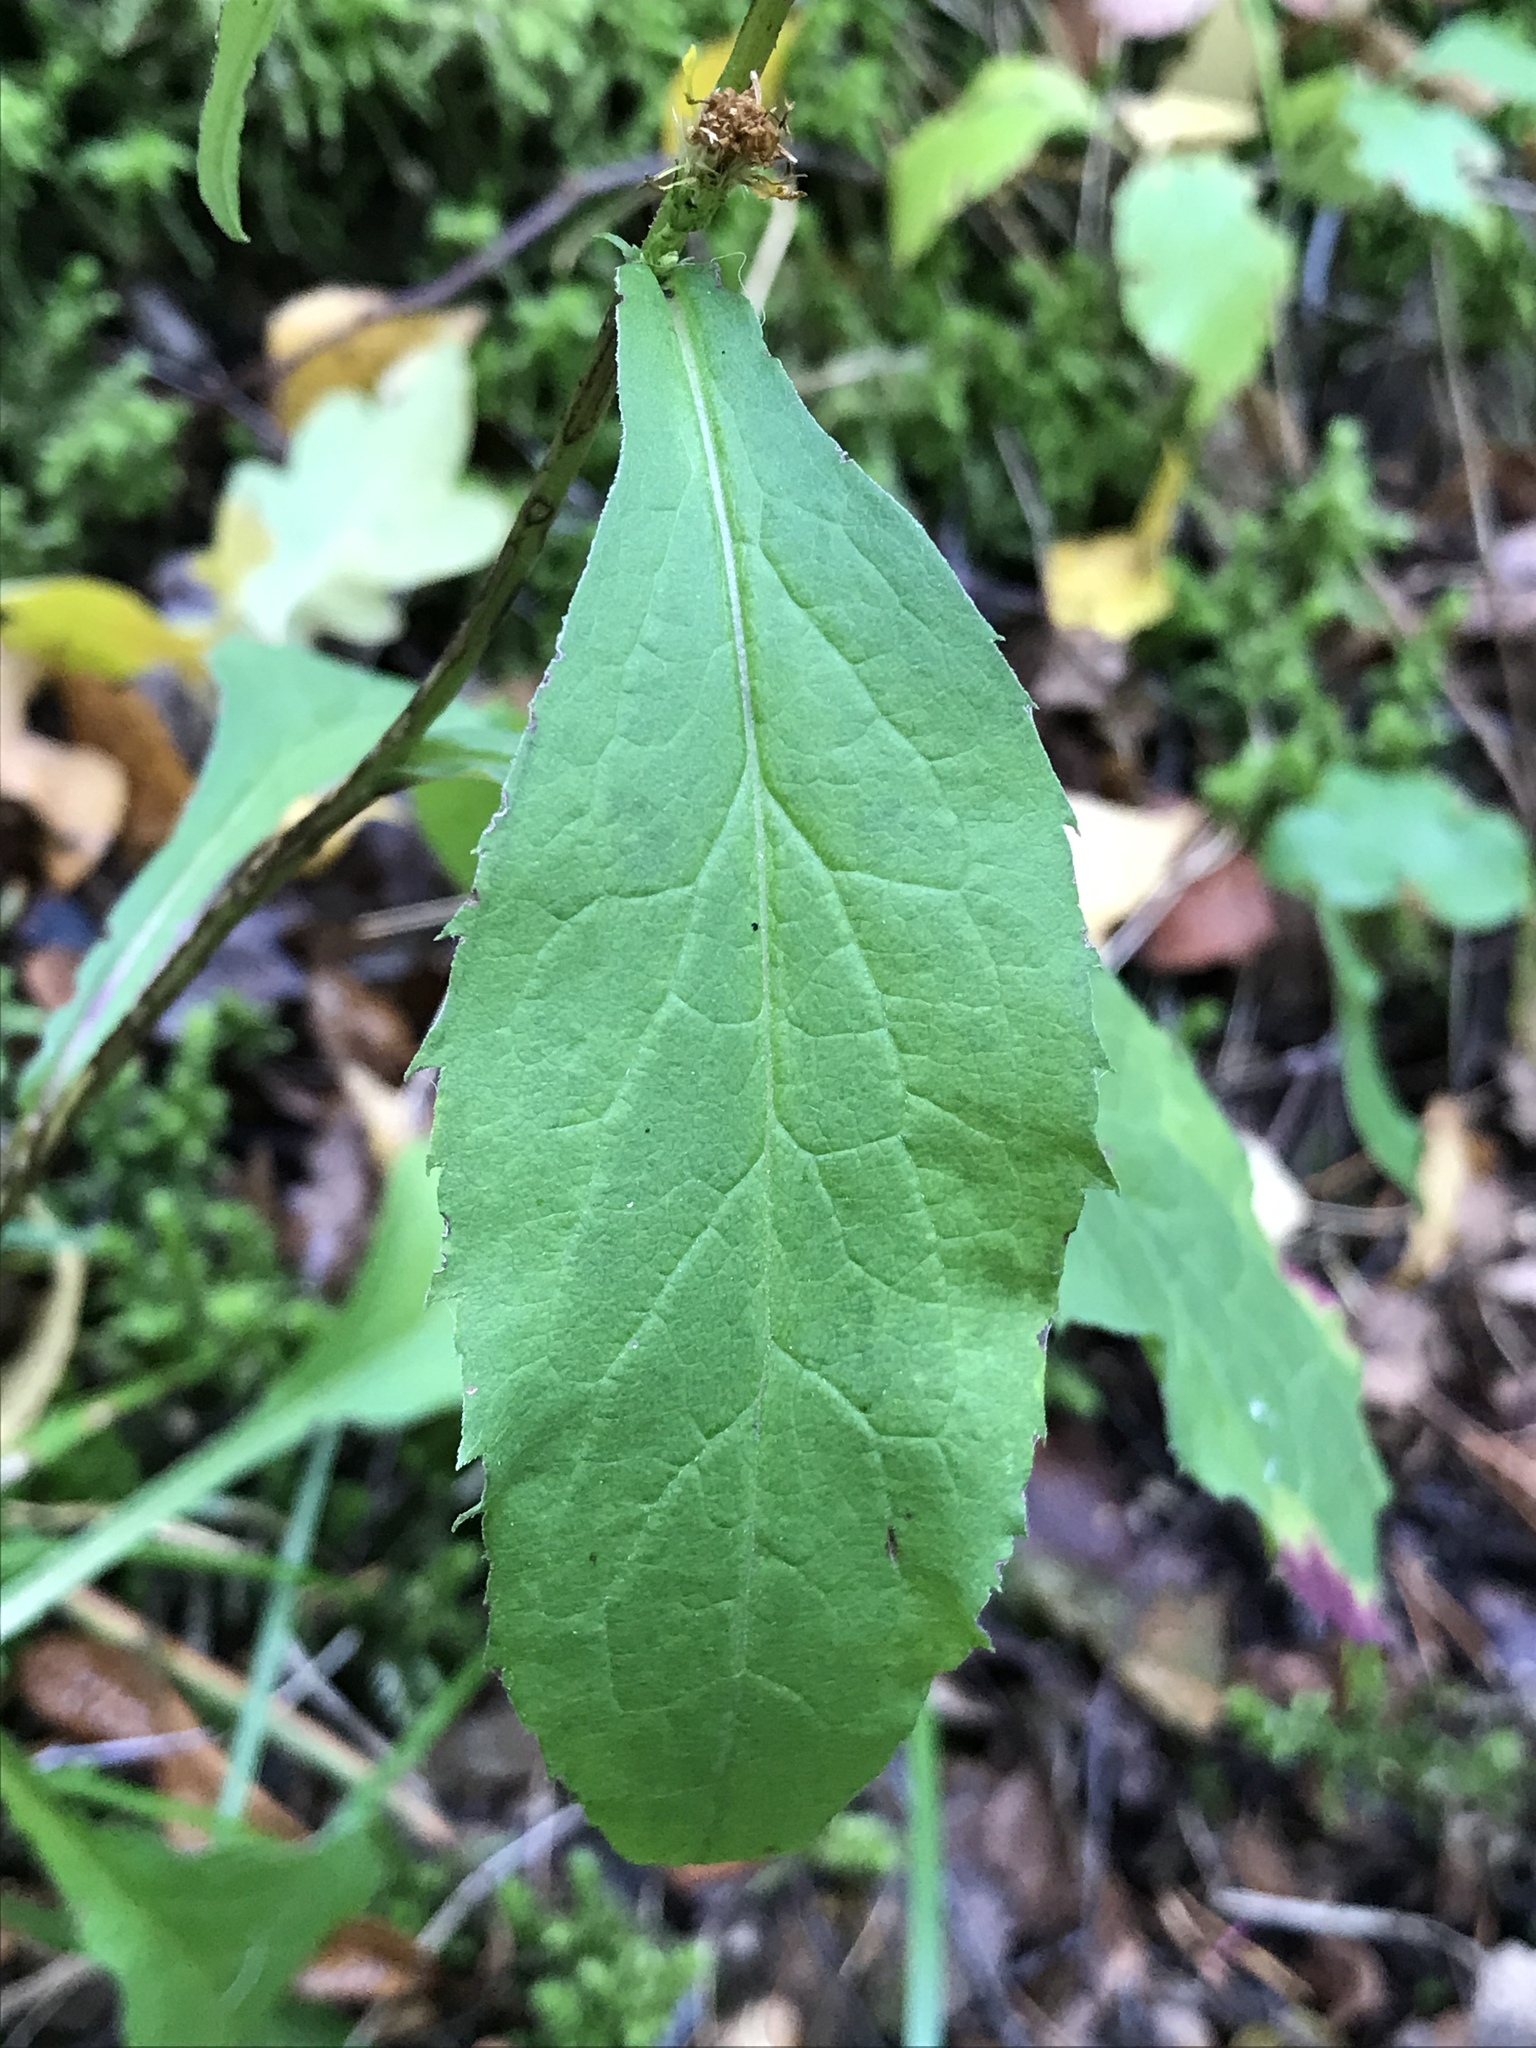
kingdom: Plantae
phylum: Tracheophyta
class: Magnoliopsida
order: Asterales
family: Asteraceae
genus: Solidago
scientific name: Solidago virgaurea
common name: Goldenrod
